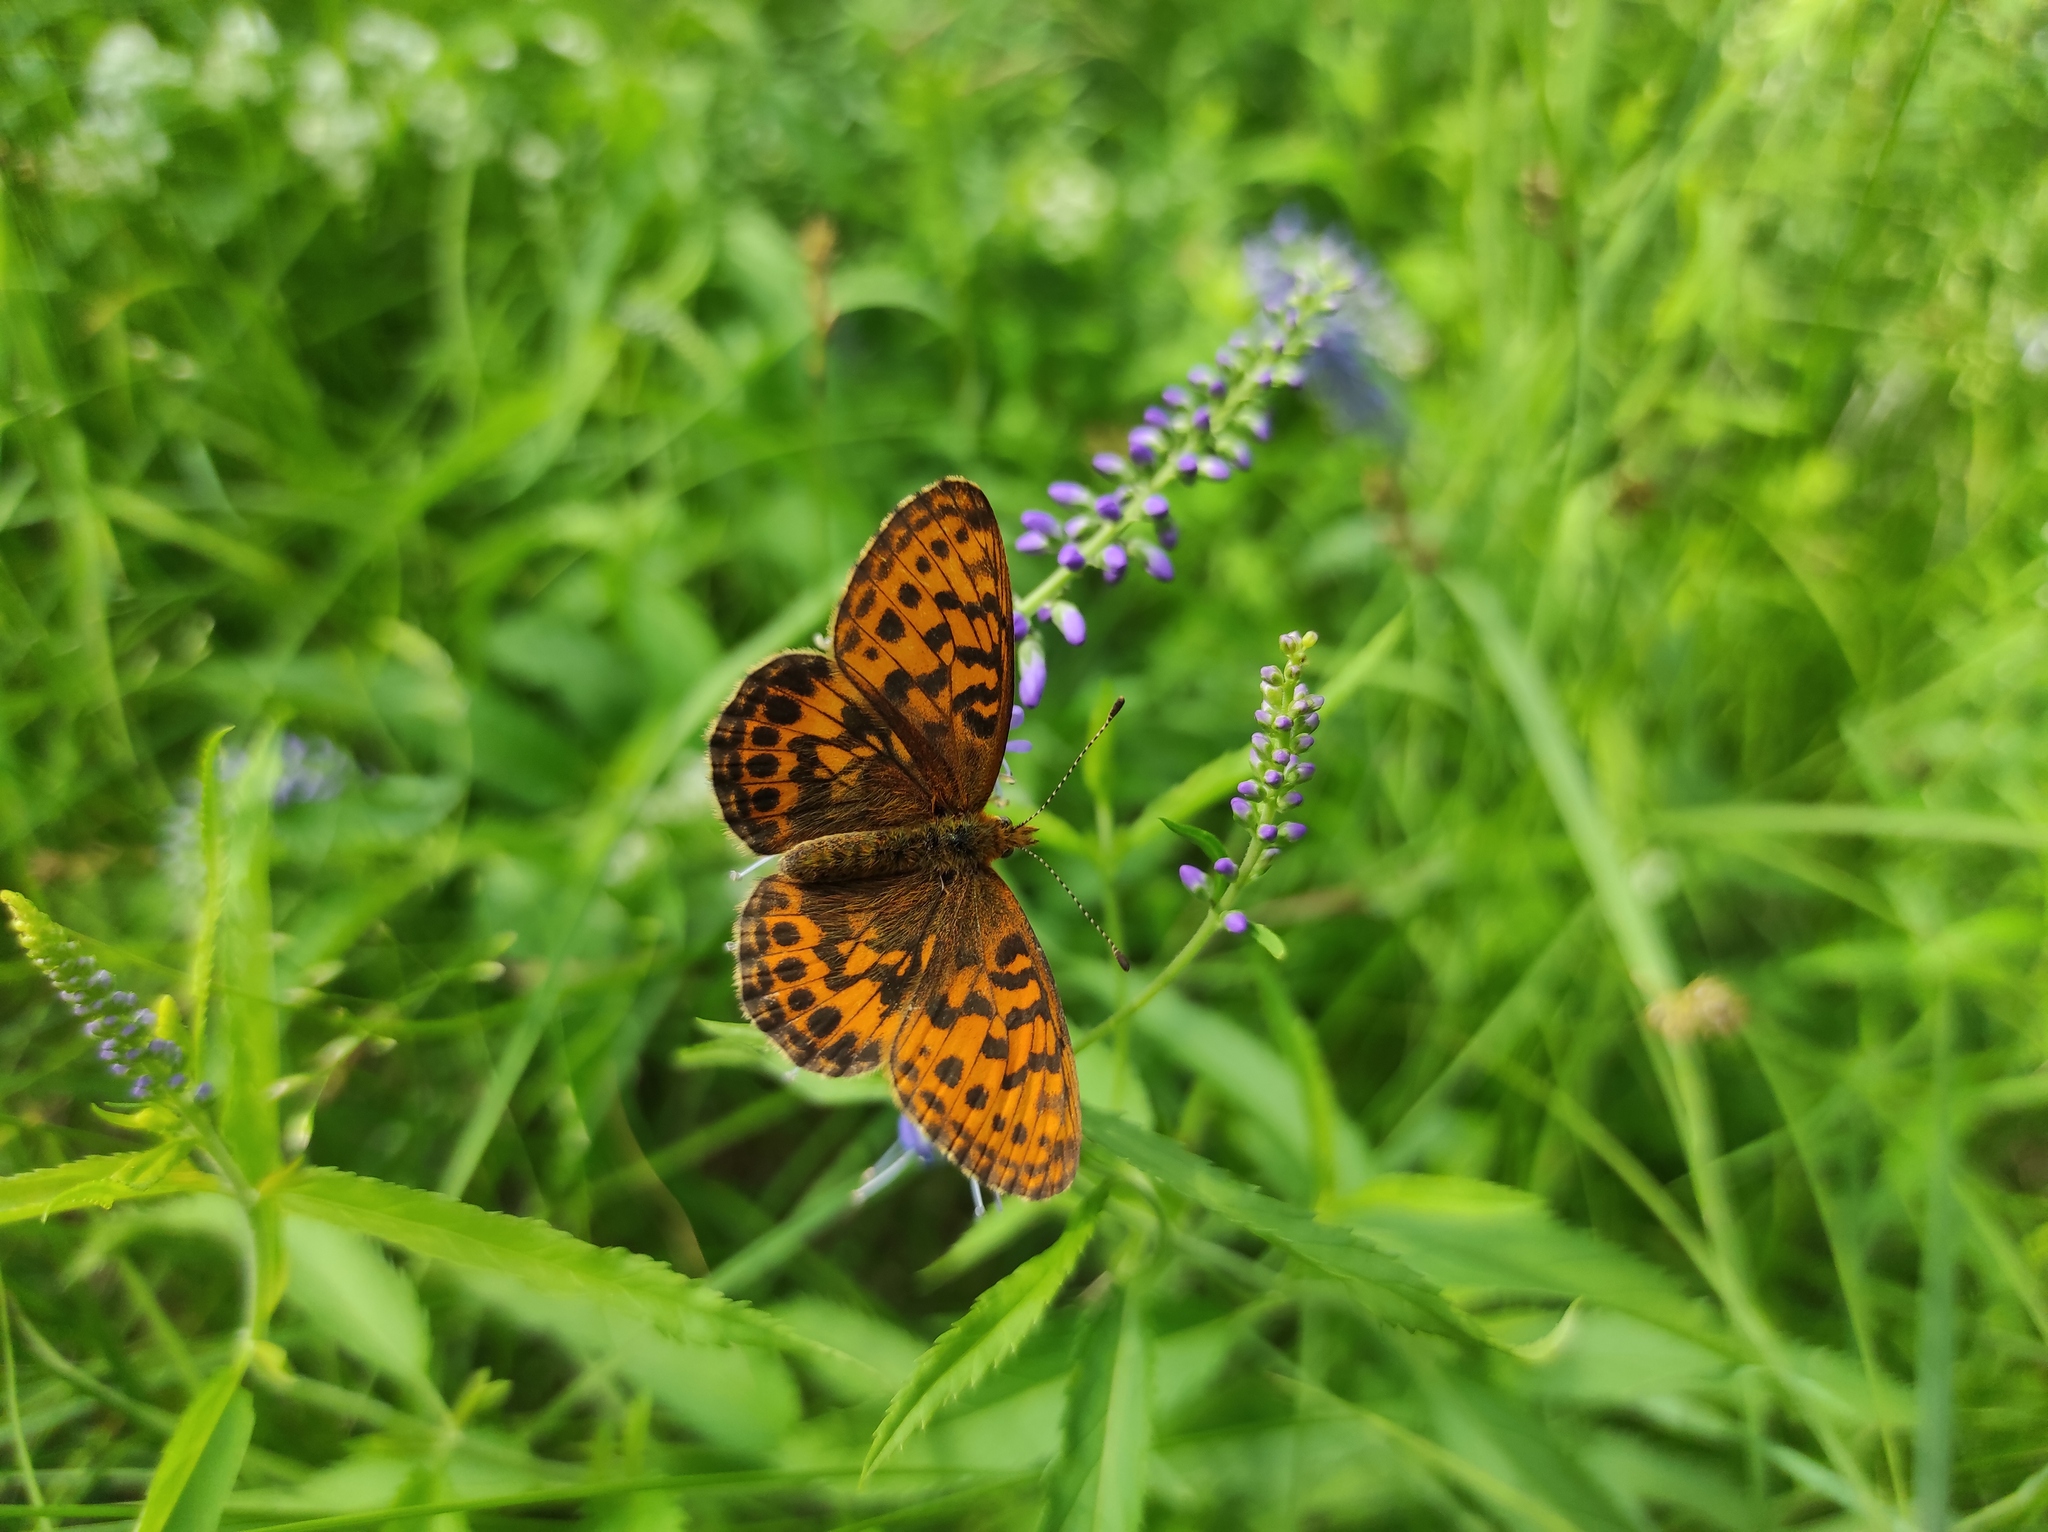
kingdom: Animalia
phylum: Arthropoda
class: Insecta
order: Lepidoptera
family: Nymphalidae
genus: Boloria
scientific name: Boloria thore
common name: Thor's fritillary
